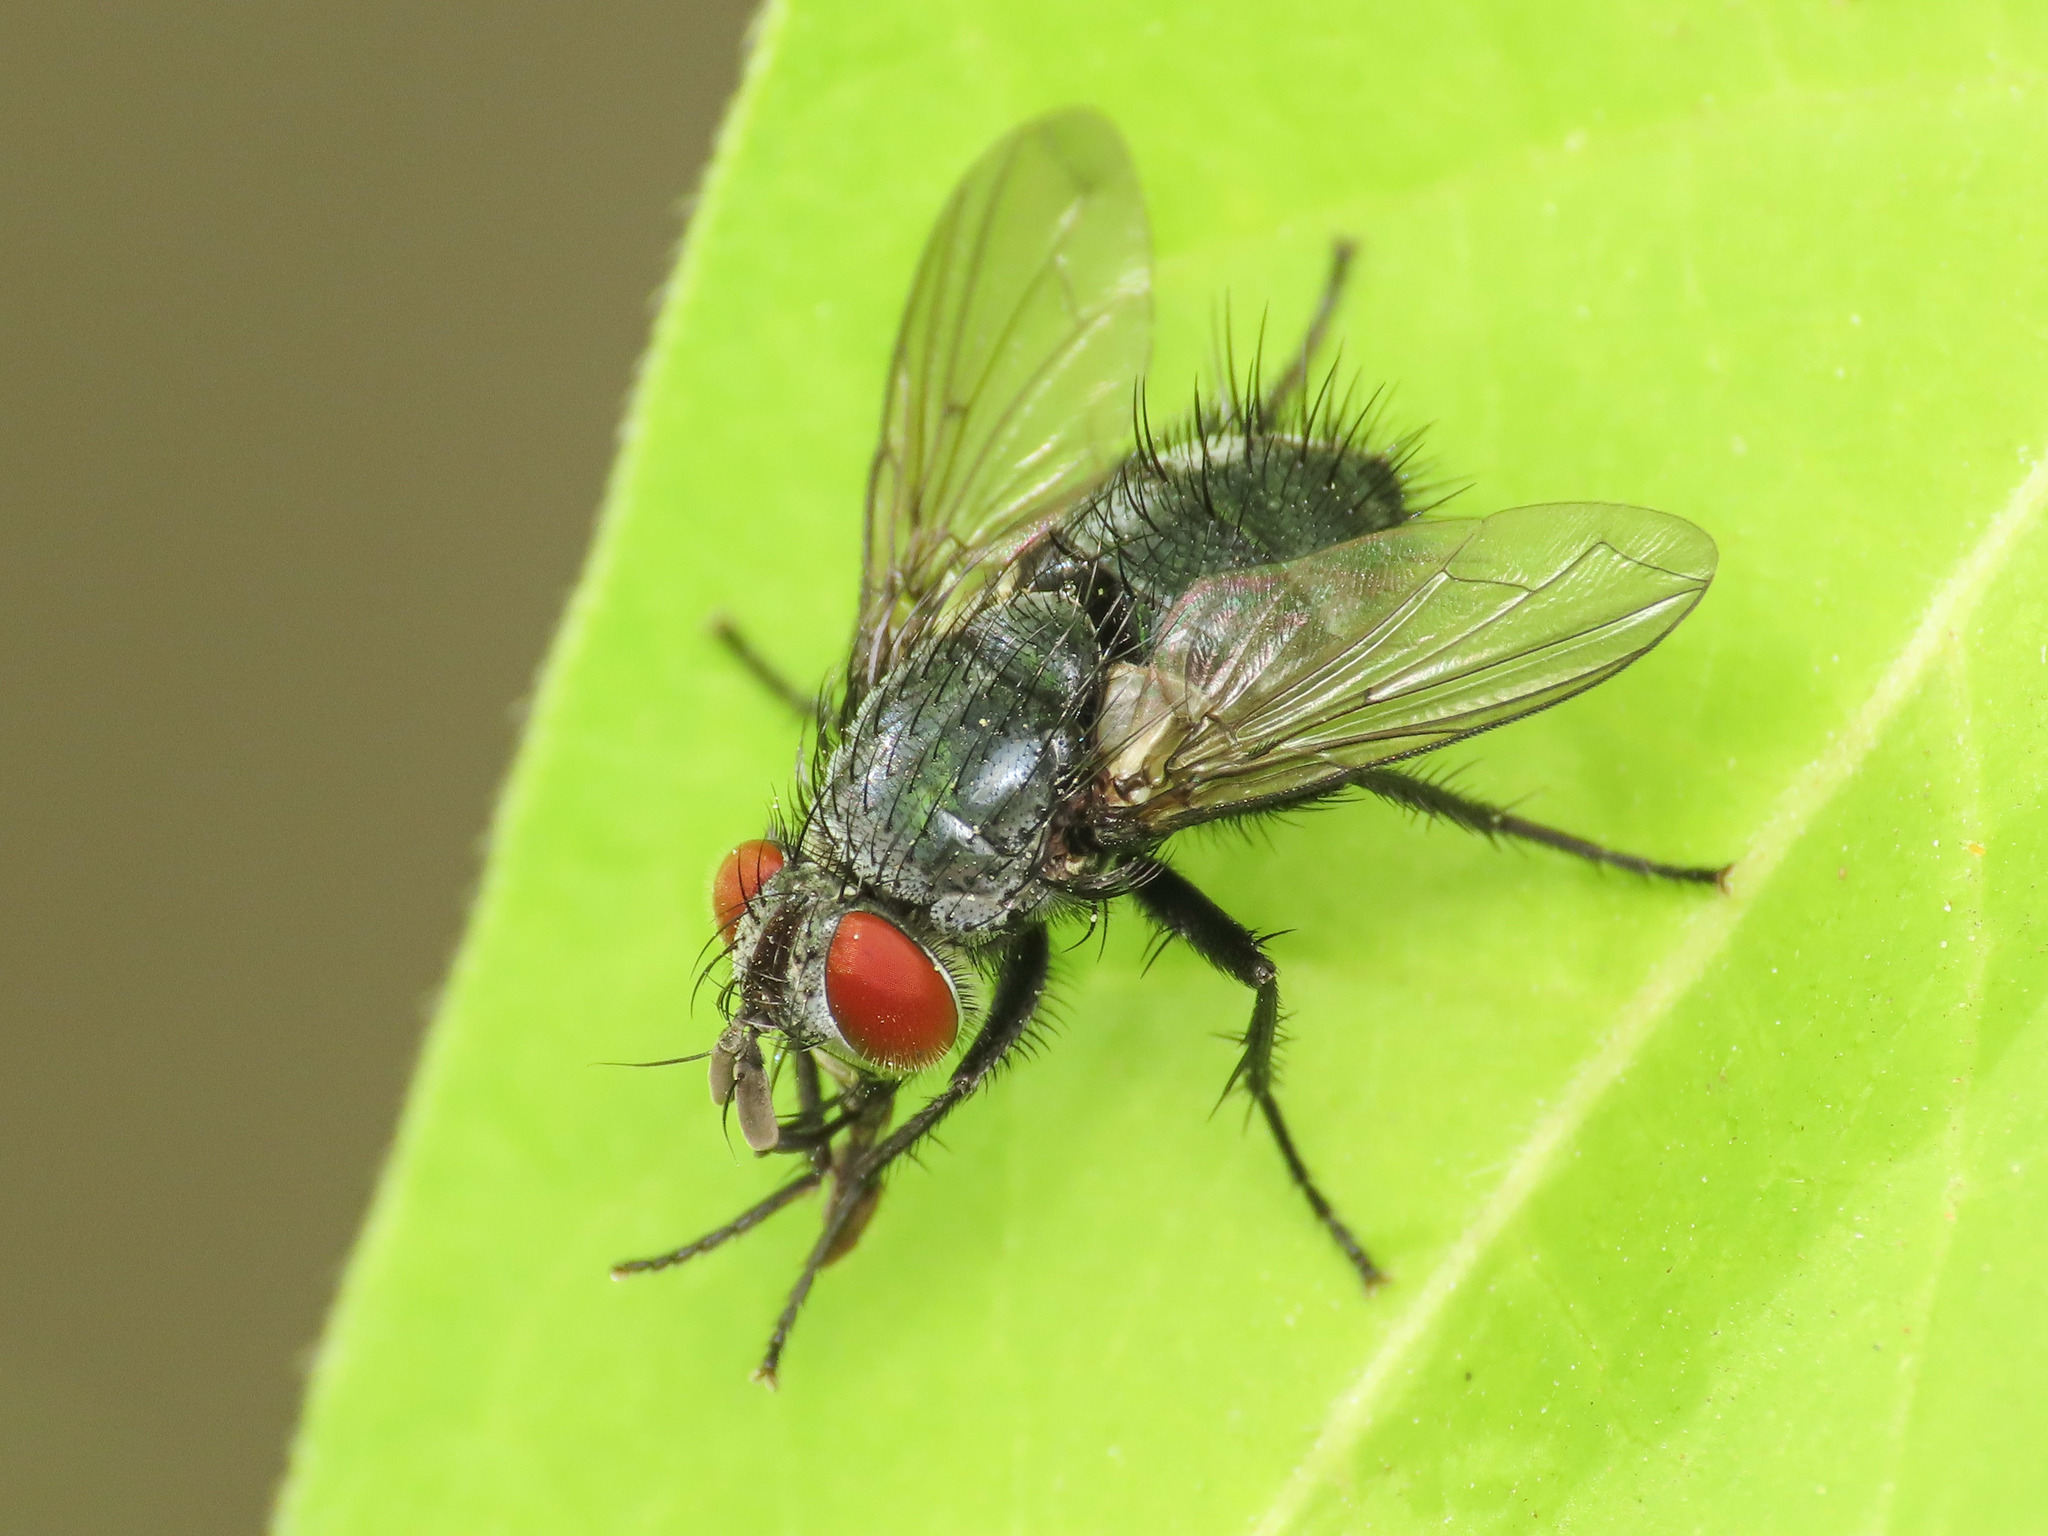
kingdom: Animalia
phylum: Arthropoda
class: Insecta
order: Diptera
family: Tachinidae
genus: Epicampocera
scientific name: Epicampocera succincta
